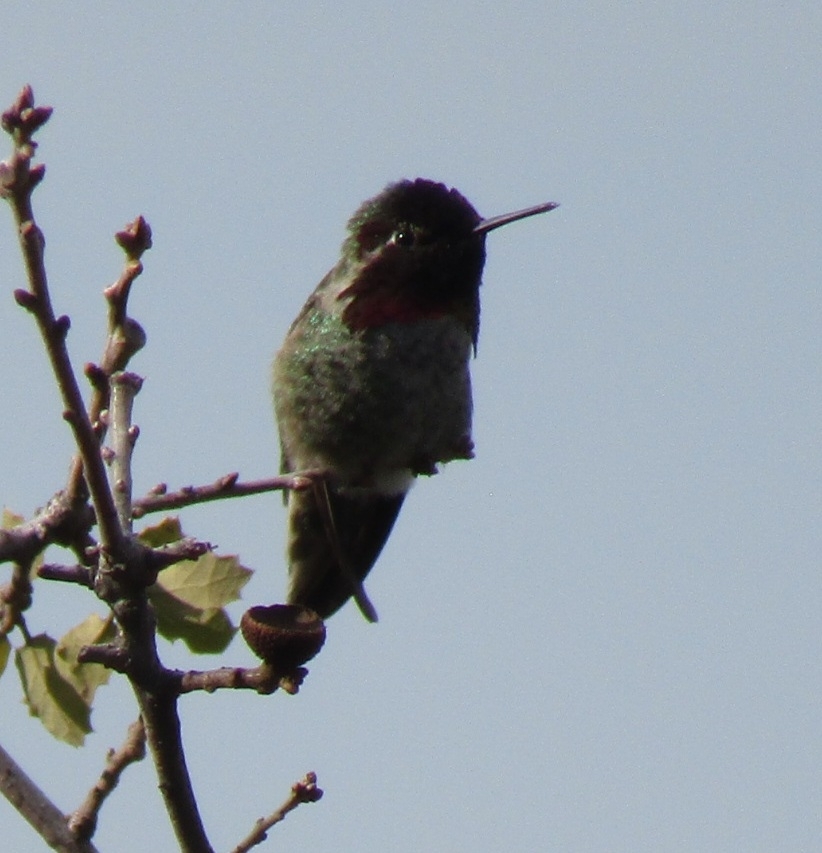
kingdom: Animalia
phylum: Chordata
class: Aves
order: Apodiformes
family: Trochilidae
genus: Calypte
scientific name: Calypte anna
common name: Anna's hummingbird
